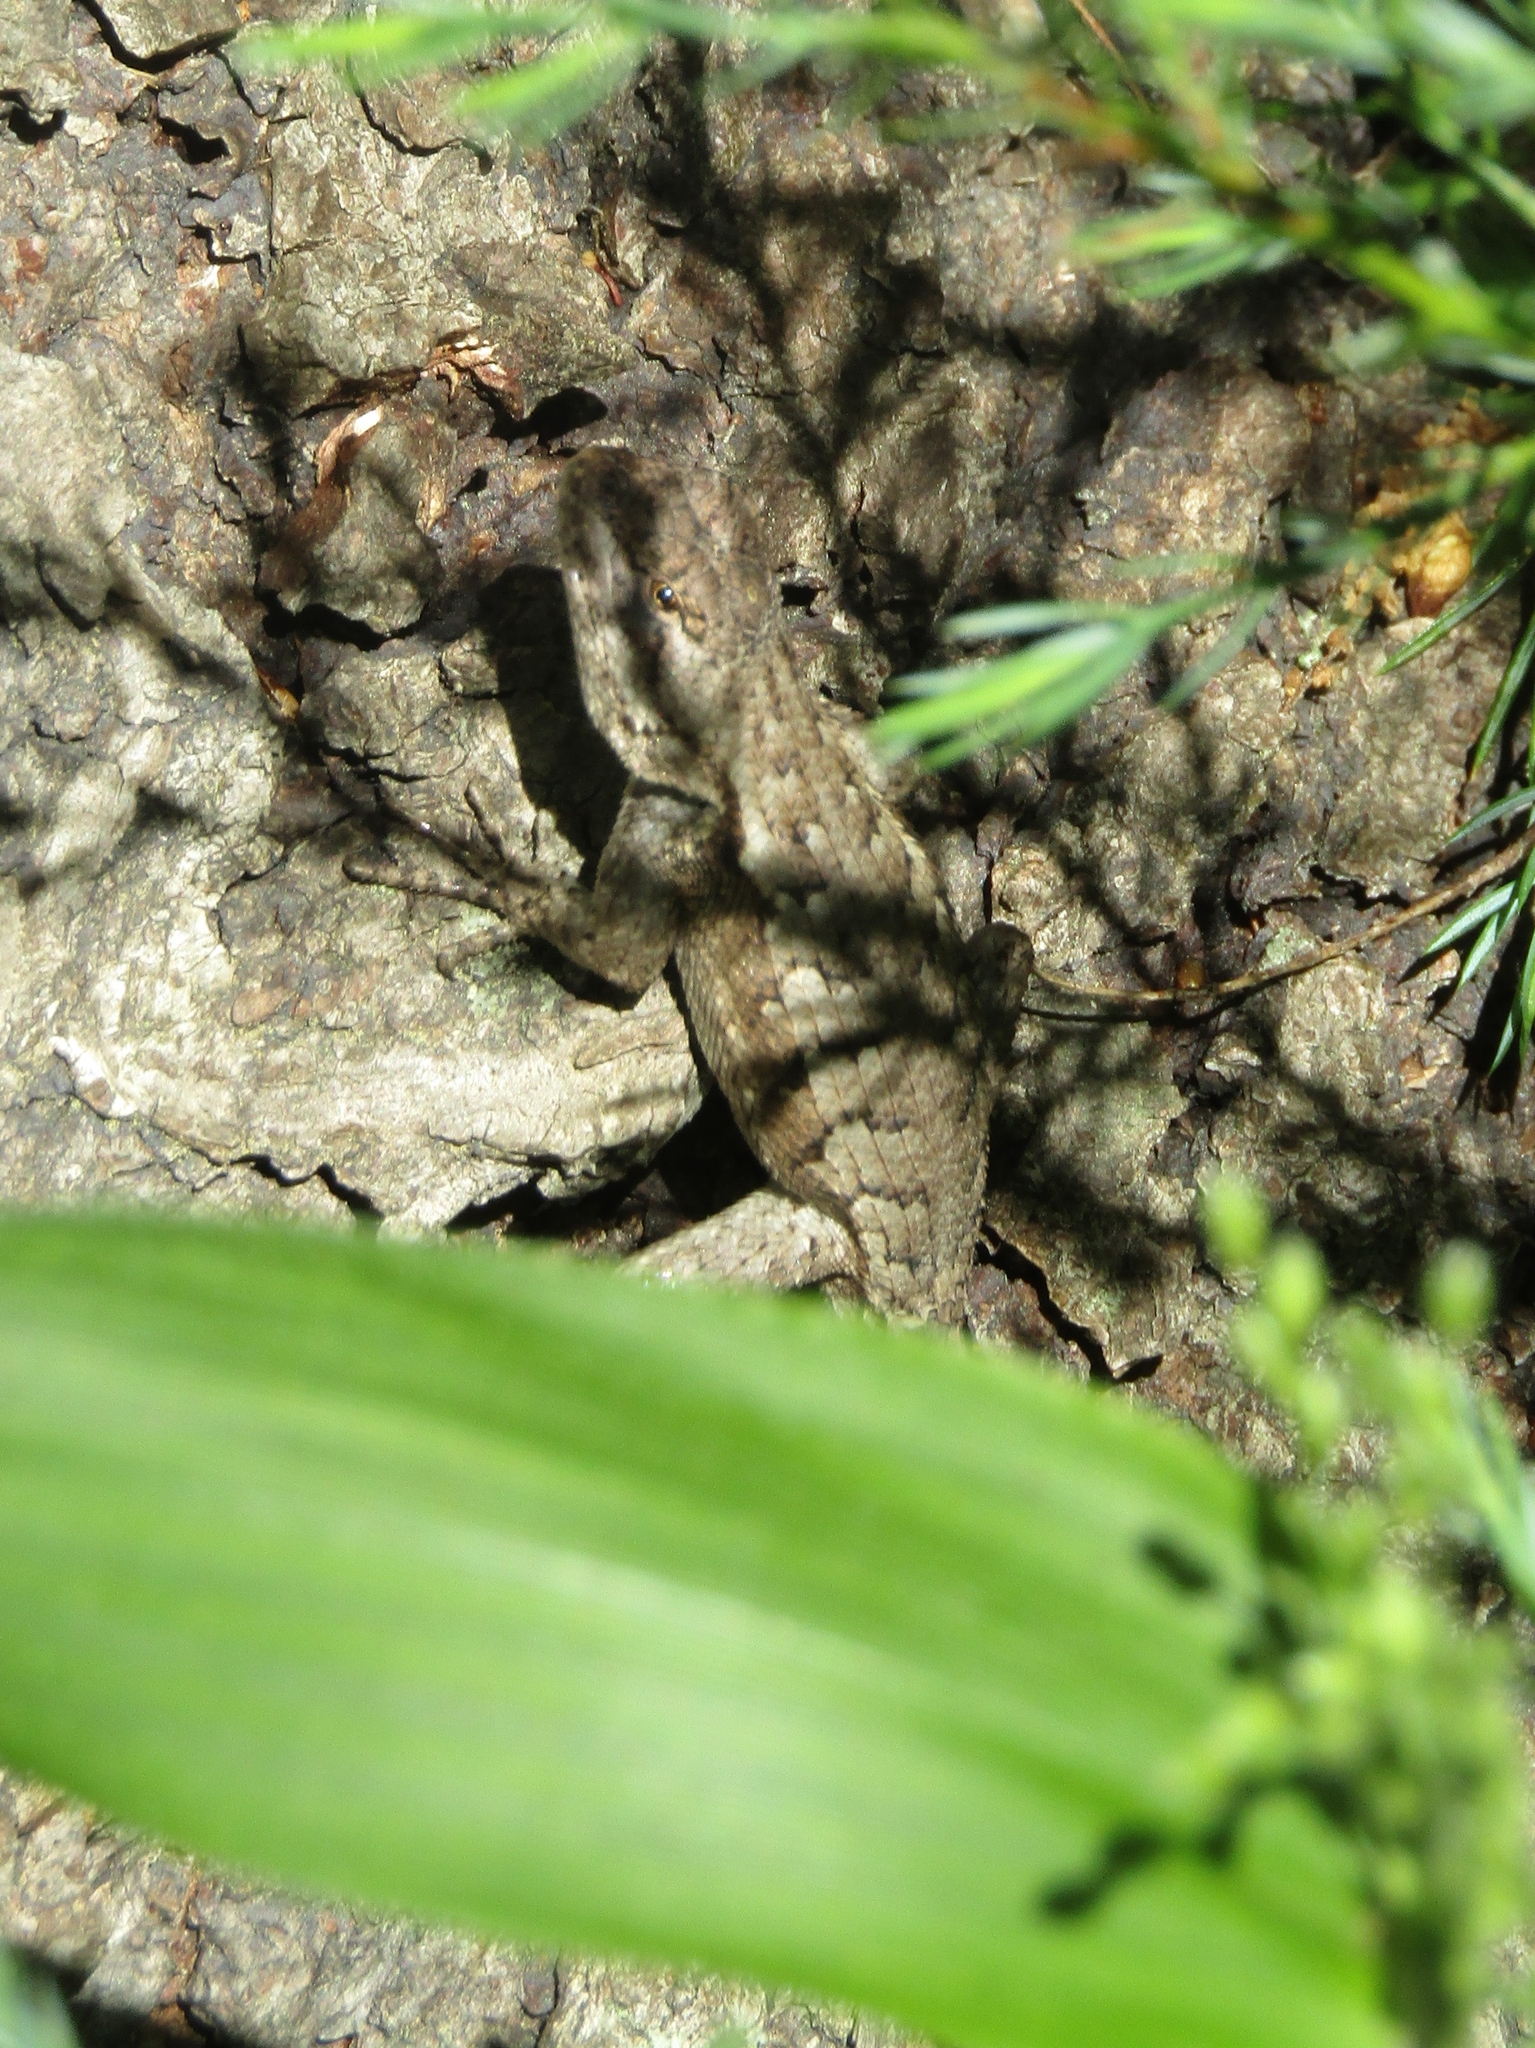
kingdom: Animalia
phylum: Chordata
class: Squamata
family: Phrynosomatidae
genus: Sceloporus
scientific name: Sceloporus undulatus
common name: Eastern fence lizard
